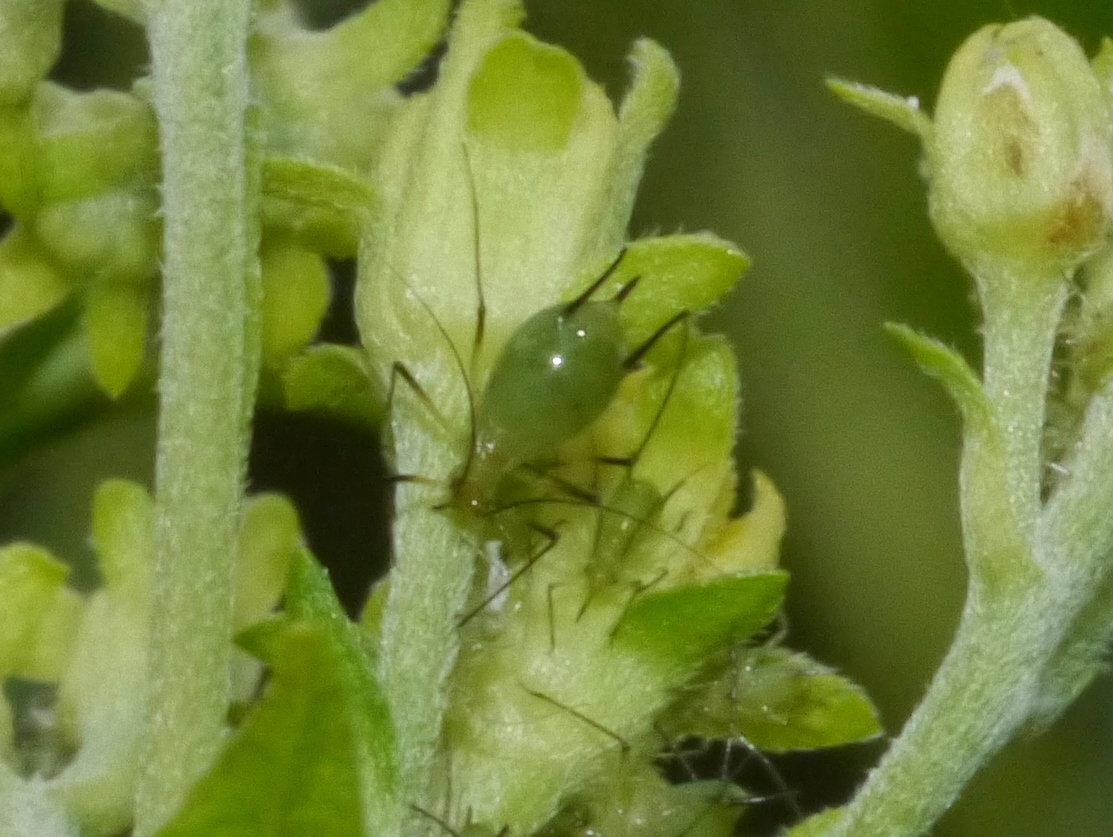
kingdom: Animalia
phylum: Arthropoda
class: Insecta
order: Hemiptera
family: Aphididae
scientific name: Aphididae
